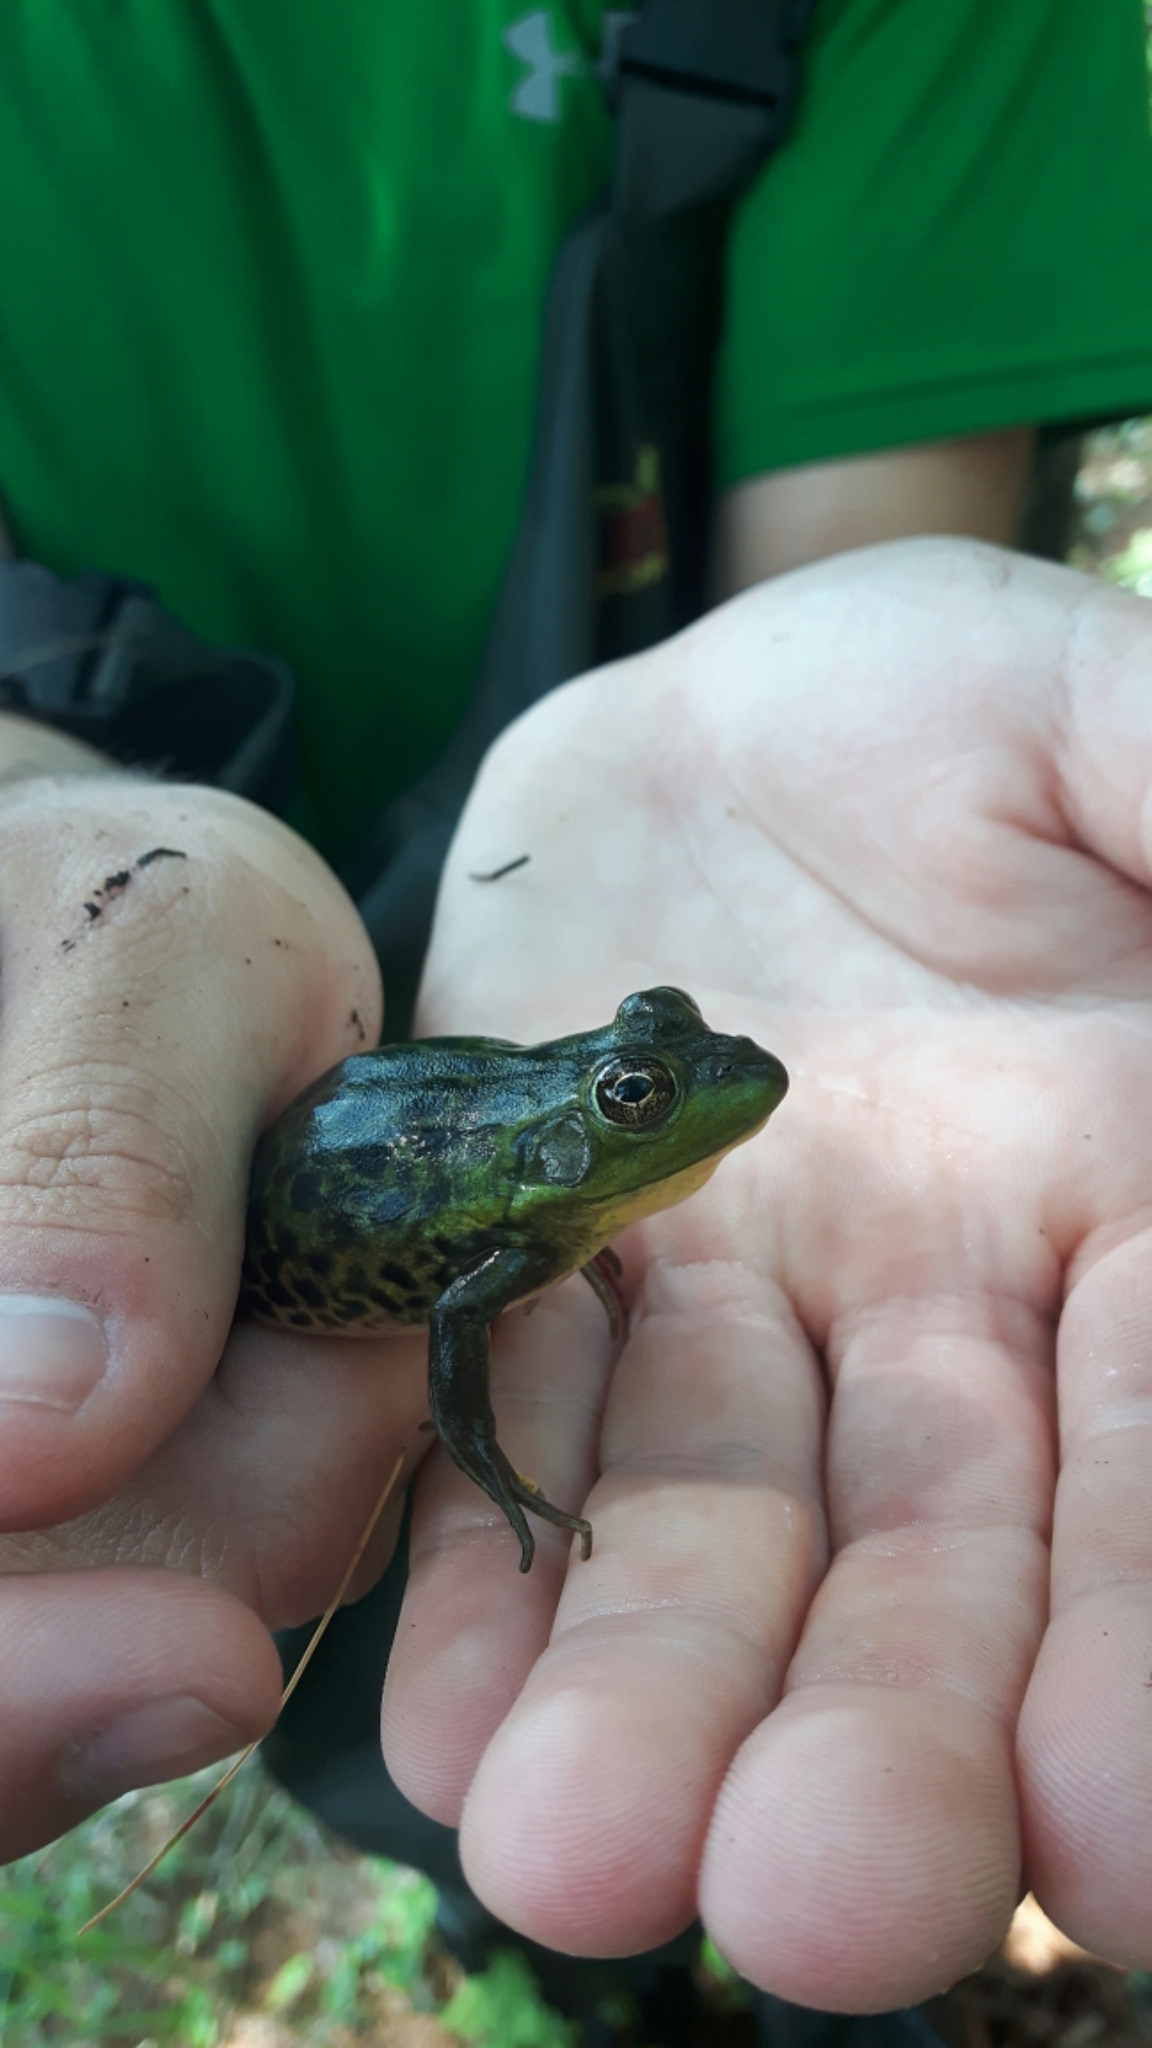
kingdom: Animalia
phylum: Chordata
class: Amphibia
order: Anura
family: Ranidae
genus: Lithobates
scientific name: Lithobates septentrionalis
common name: Mink frog
